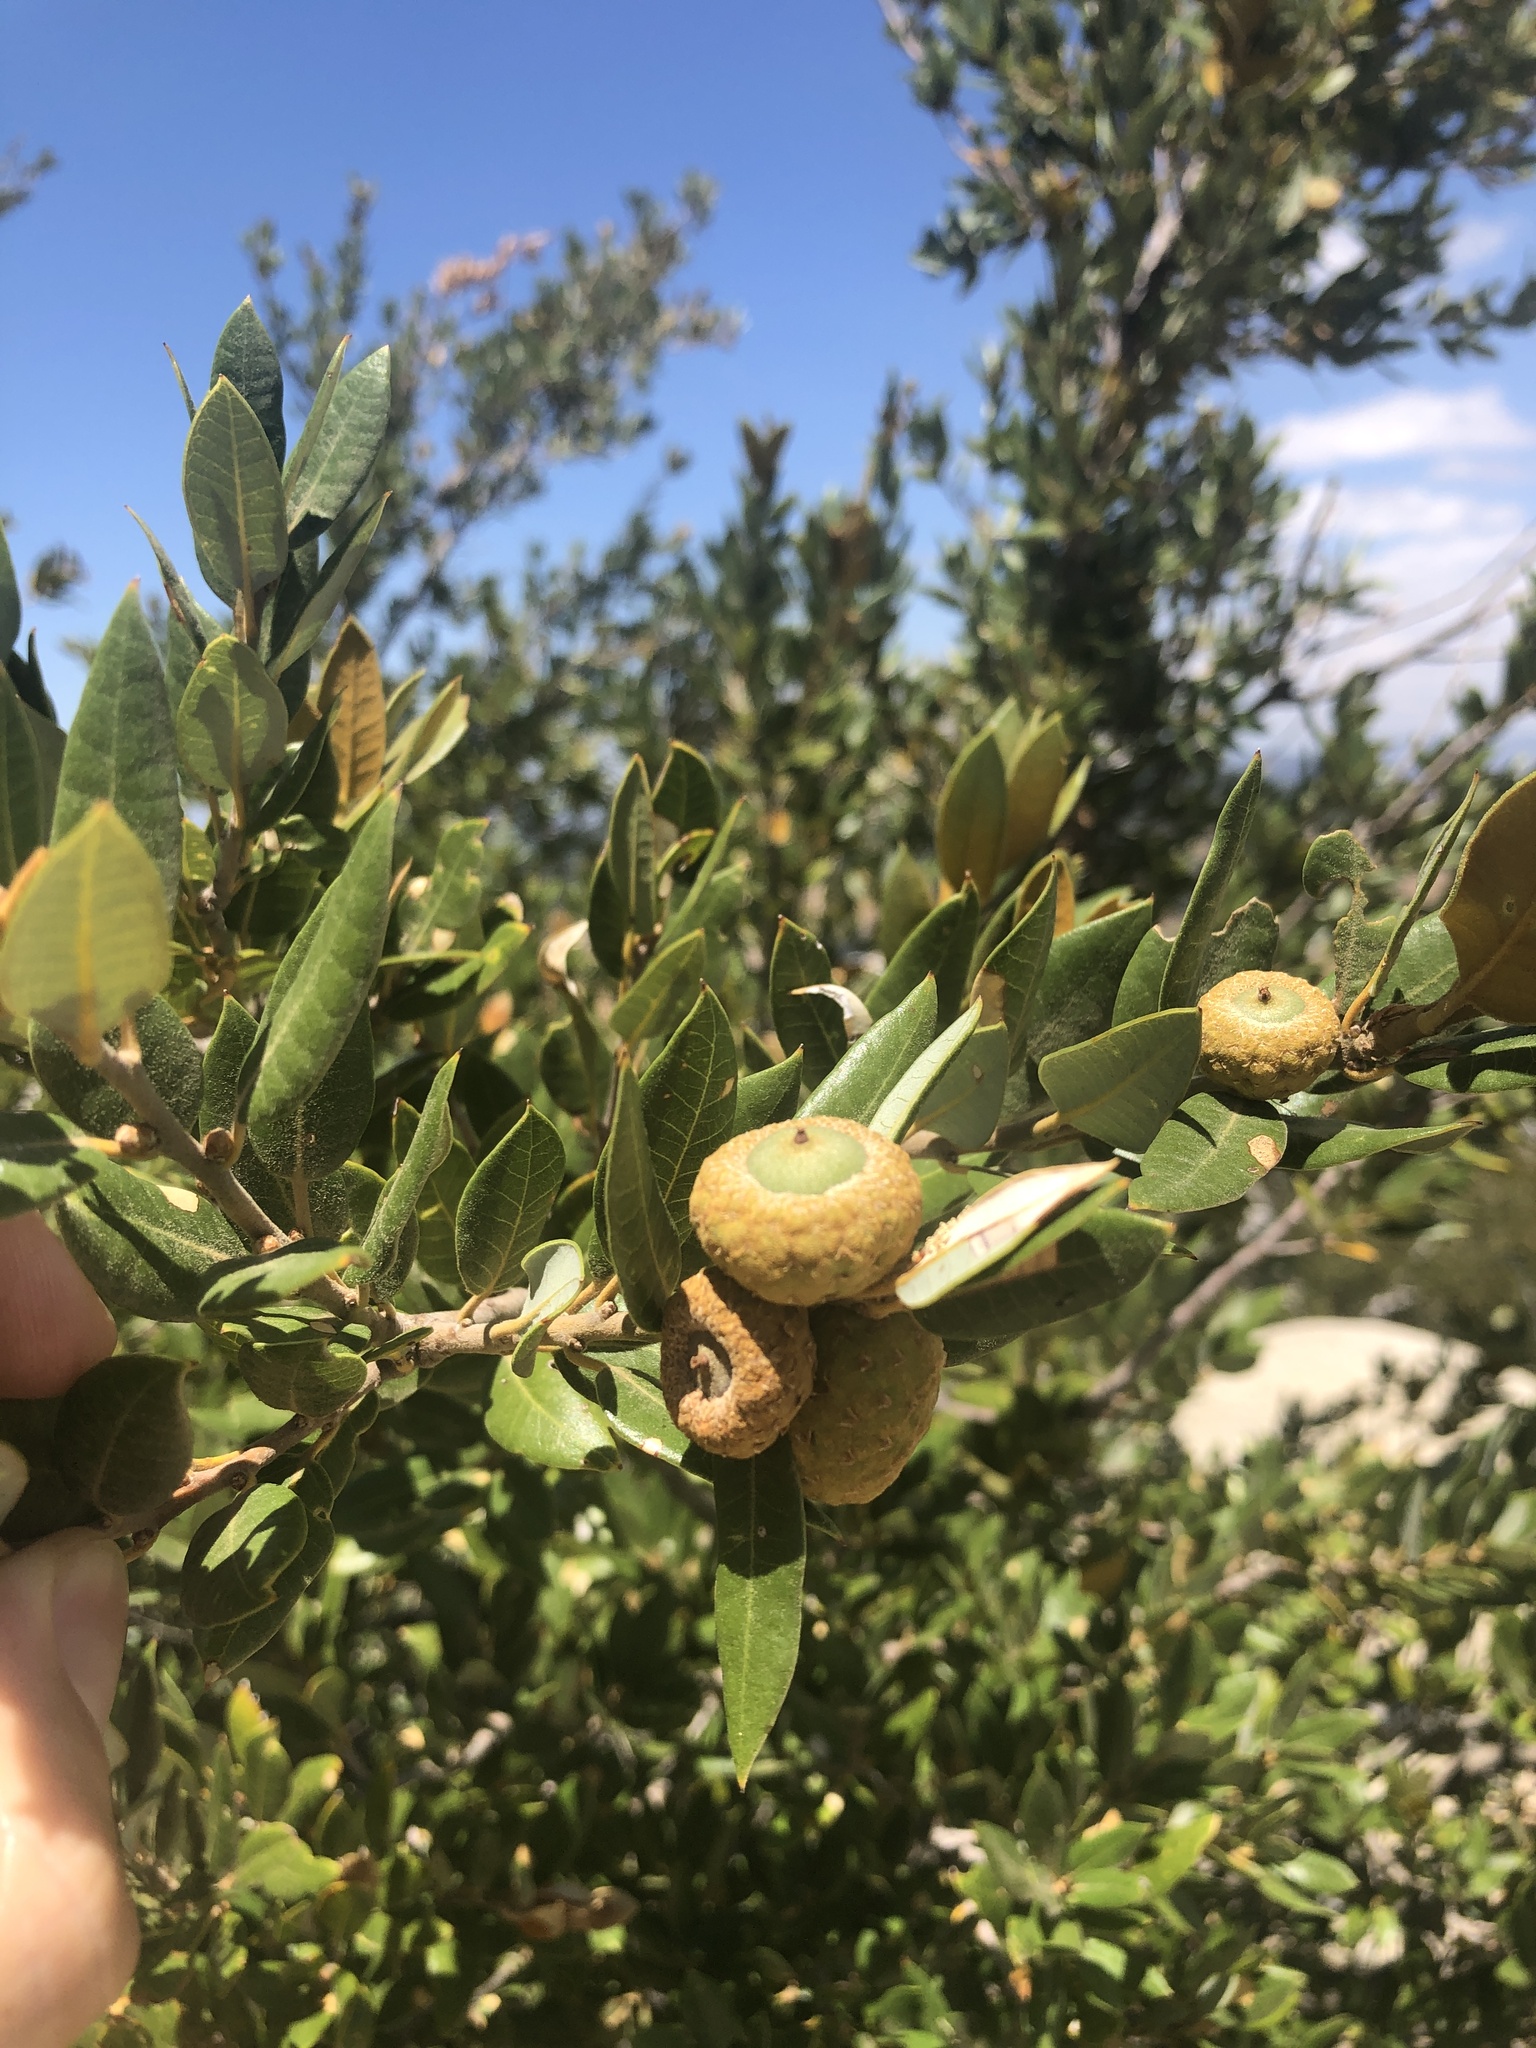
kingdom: Plantae
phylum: Tracheophyta
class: Magnoliopsida
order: Fagales
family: Fagaceae
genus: Quercus
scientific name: Quercus chrysolepis
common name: Canyon live oak
